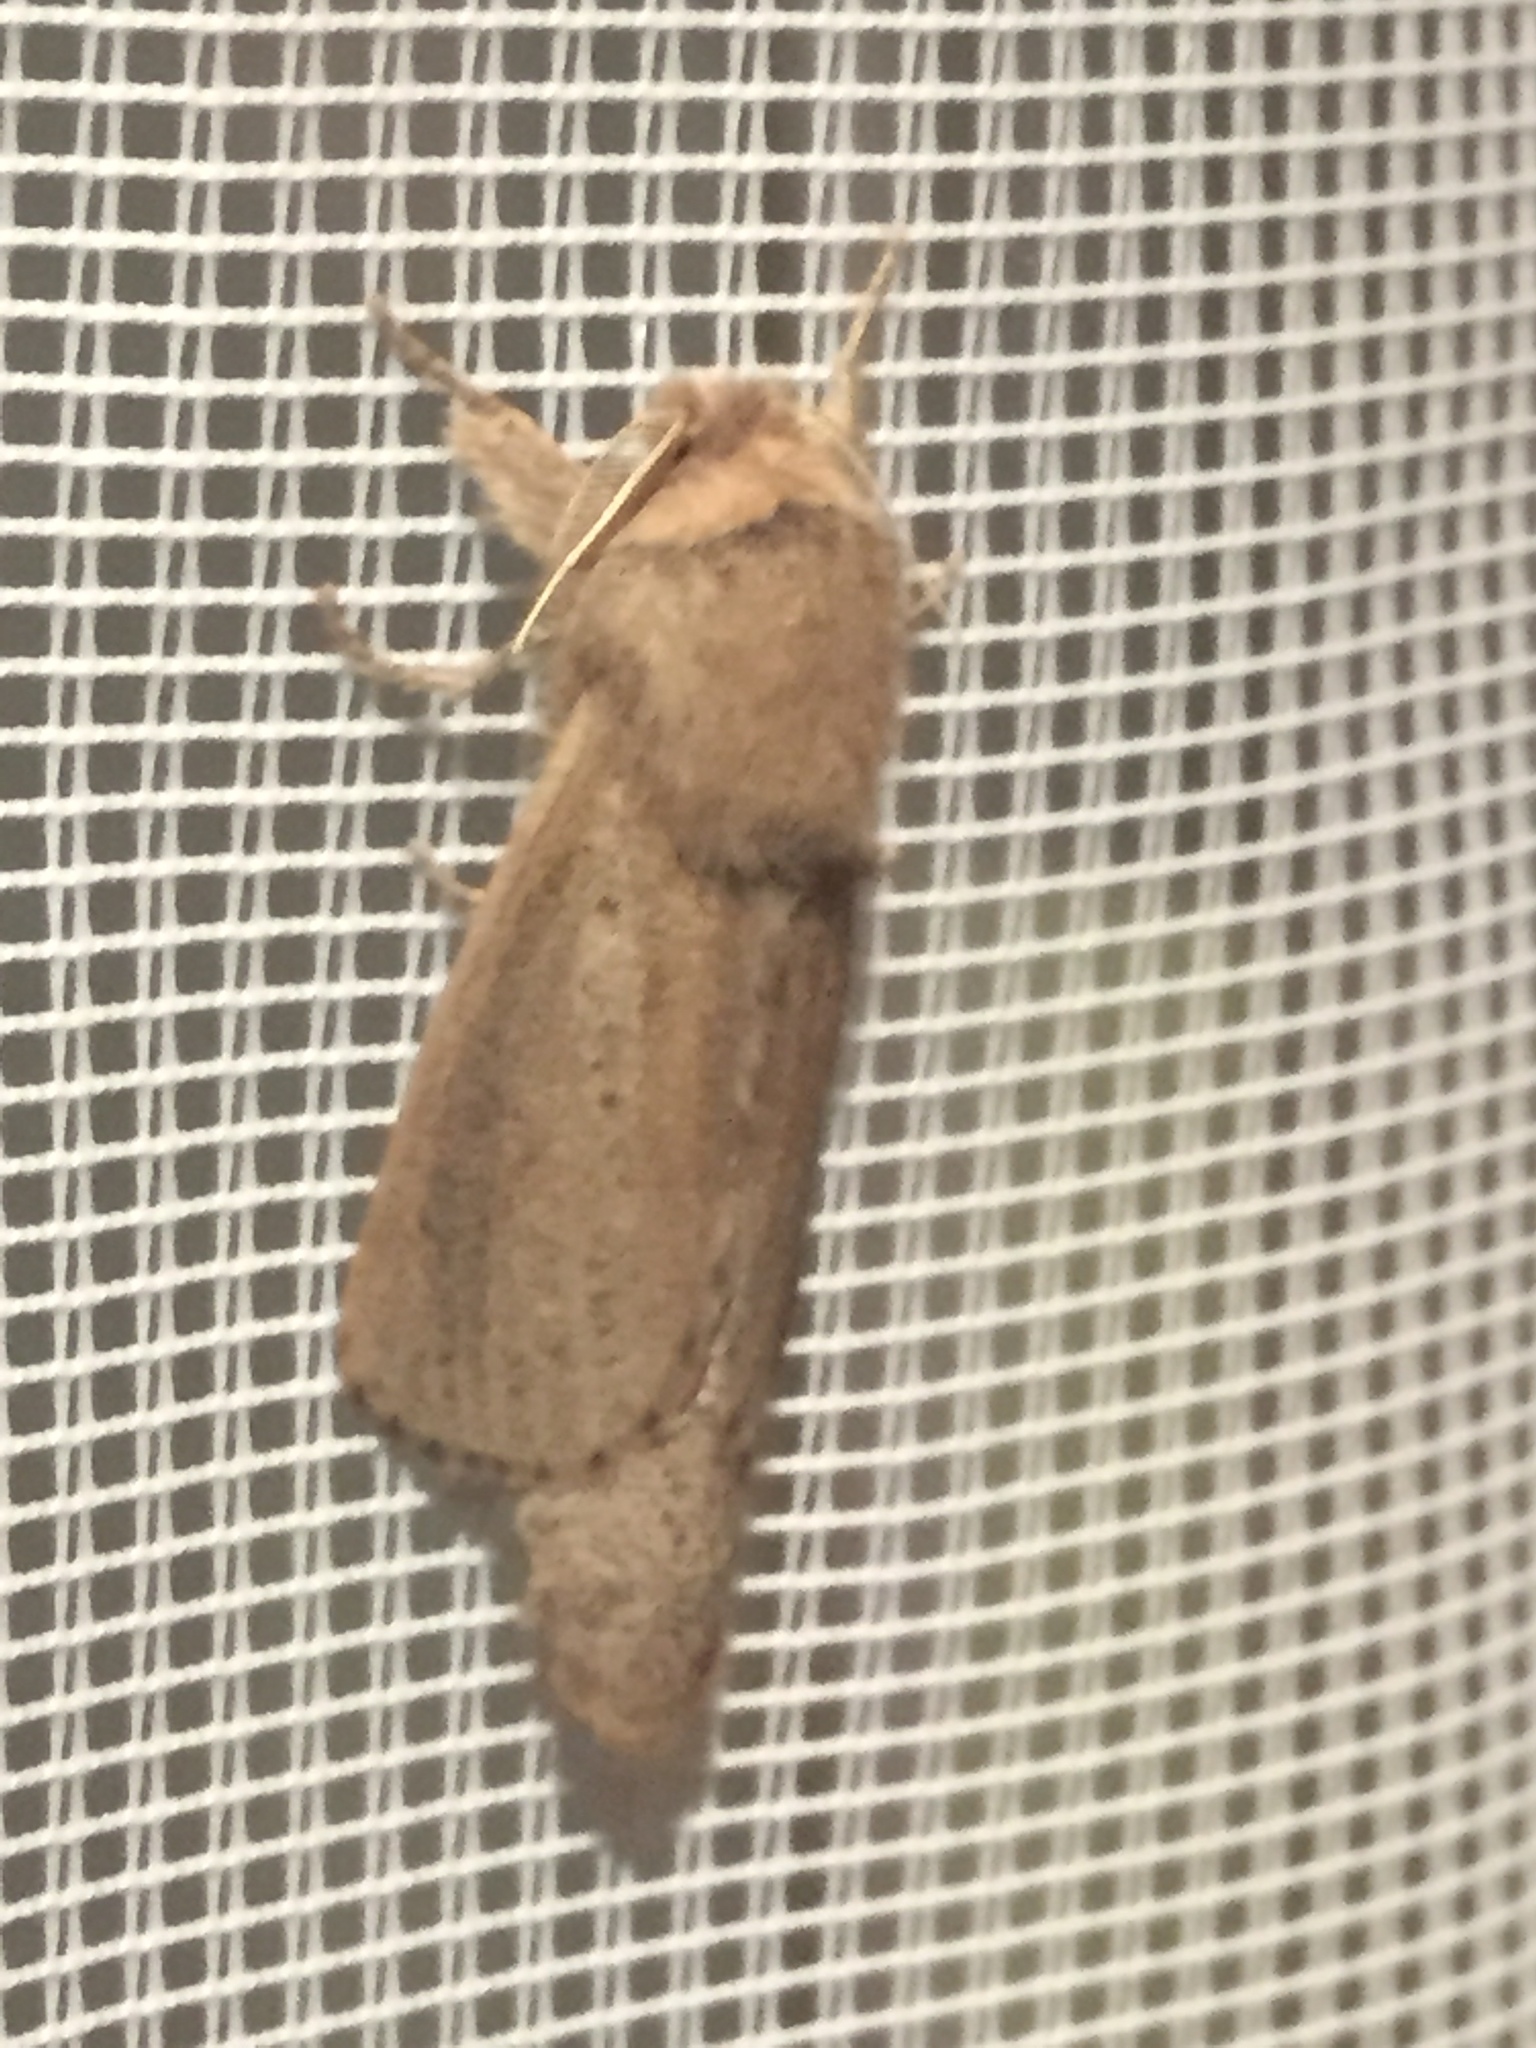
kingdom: Animalia
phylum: Arthropoda
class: Insecta
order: Lepidoptera
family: Cossidae
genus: Phragmataecia
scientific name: Phragmataecia castaneae
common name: Reed leopard
